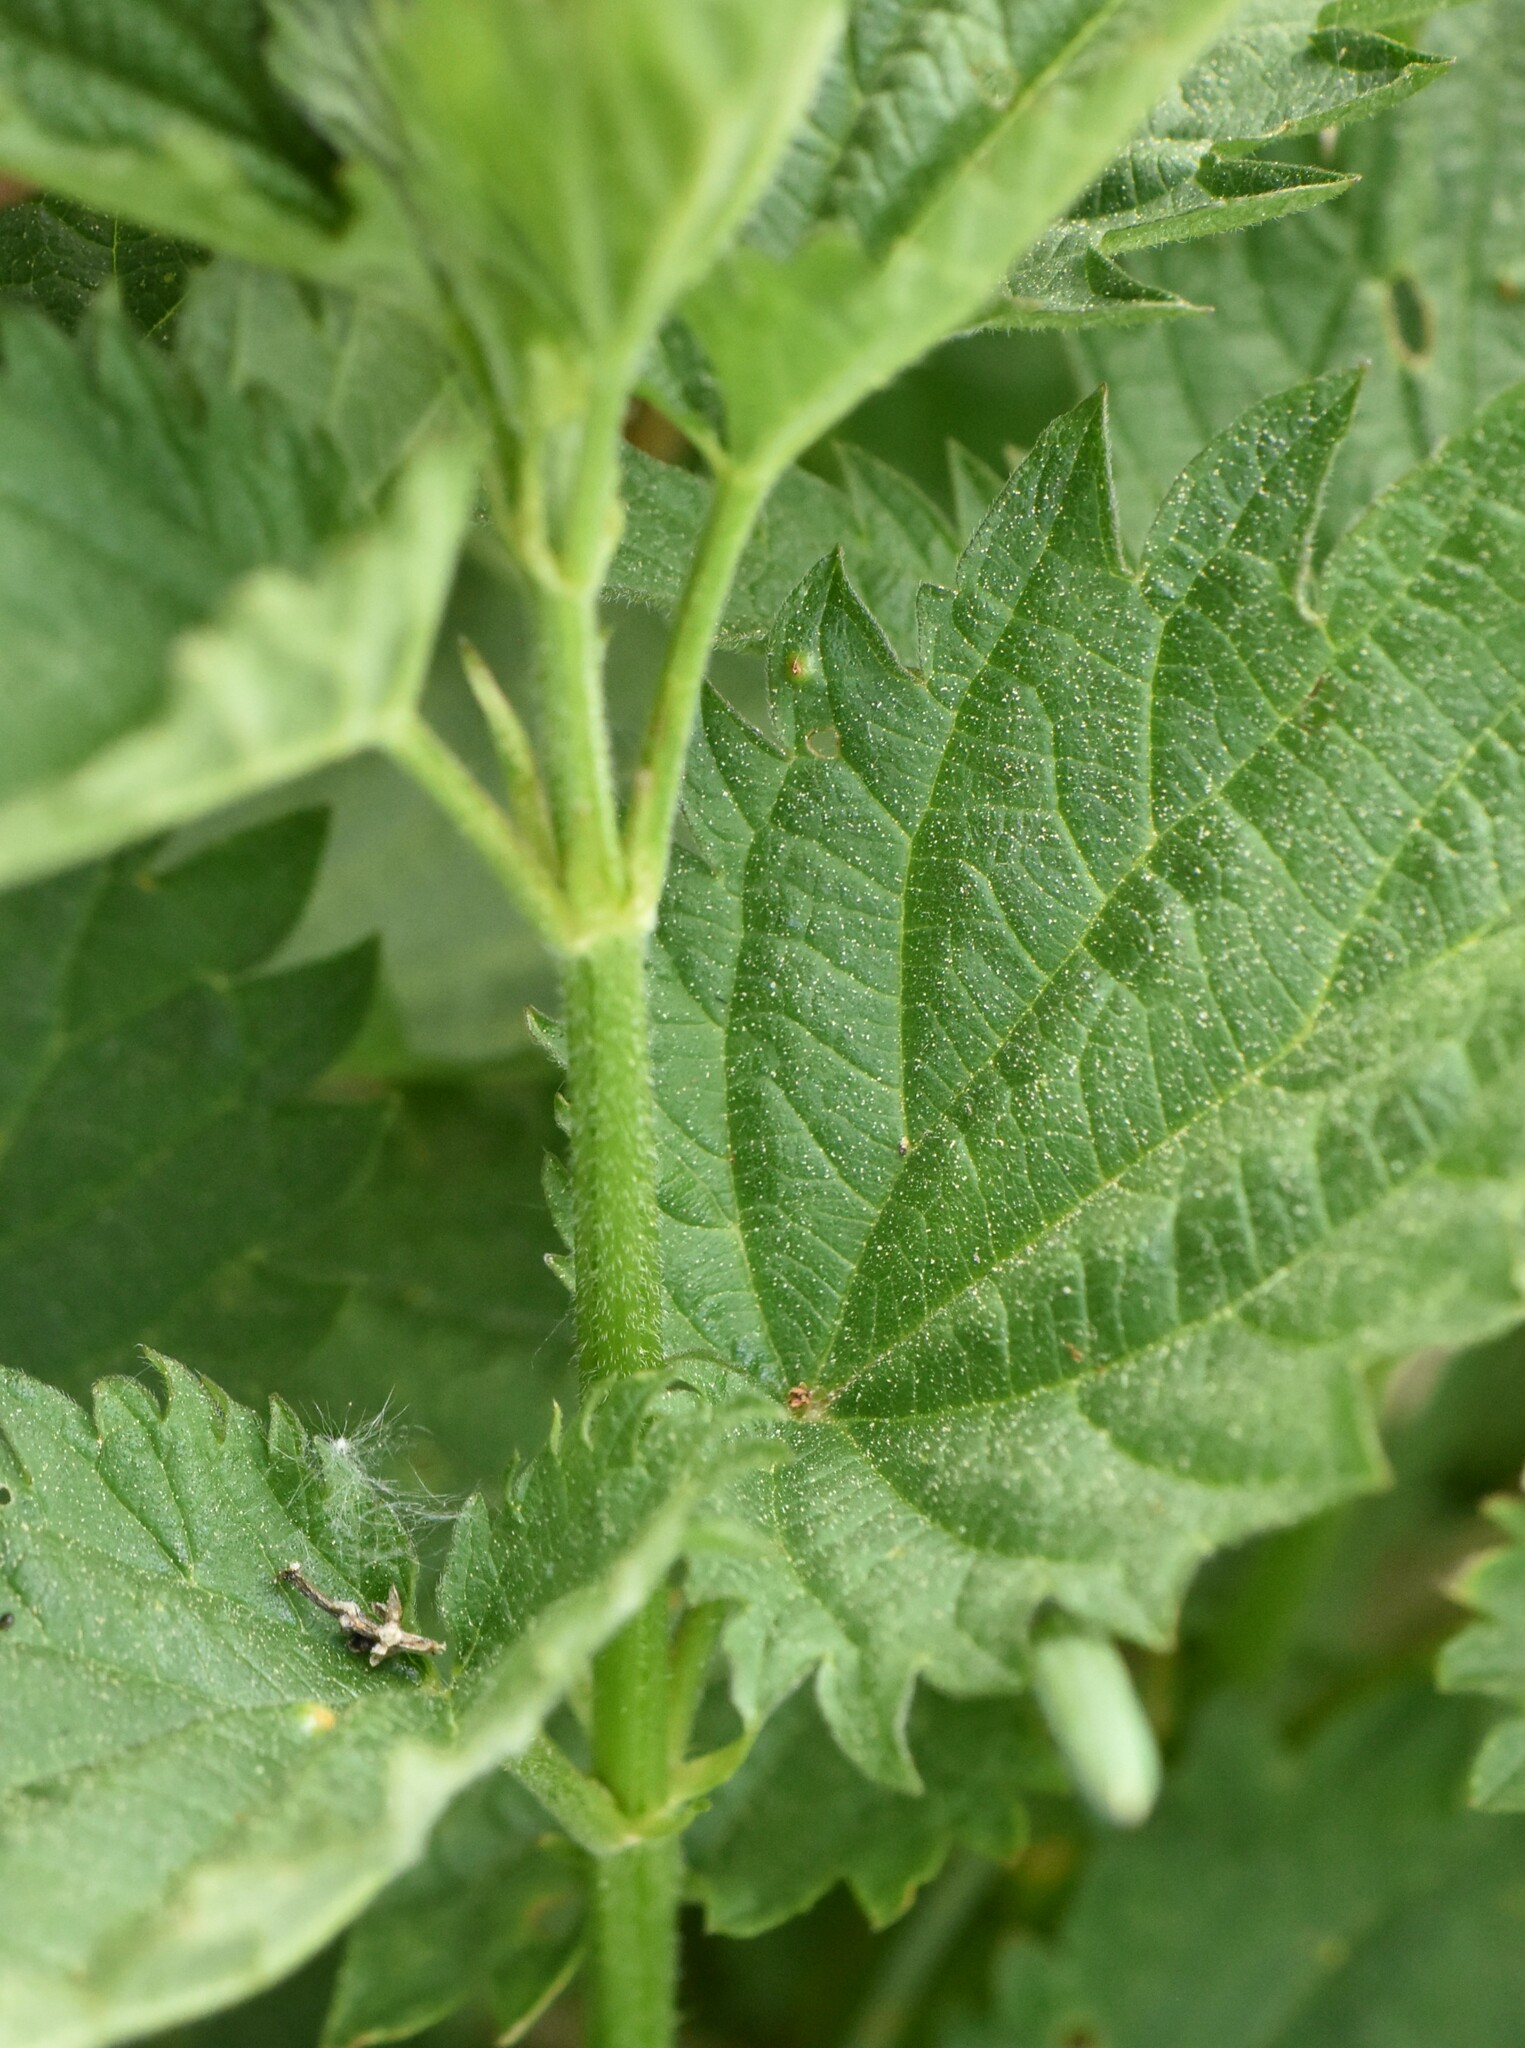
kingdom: Plantae
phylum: Tracheophyta
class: Magnoliopsida
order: Rosales
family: Urticaceae
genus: Urtica
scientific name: Urtica dioica
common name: Common nettle
